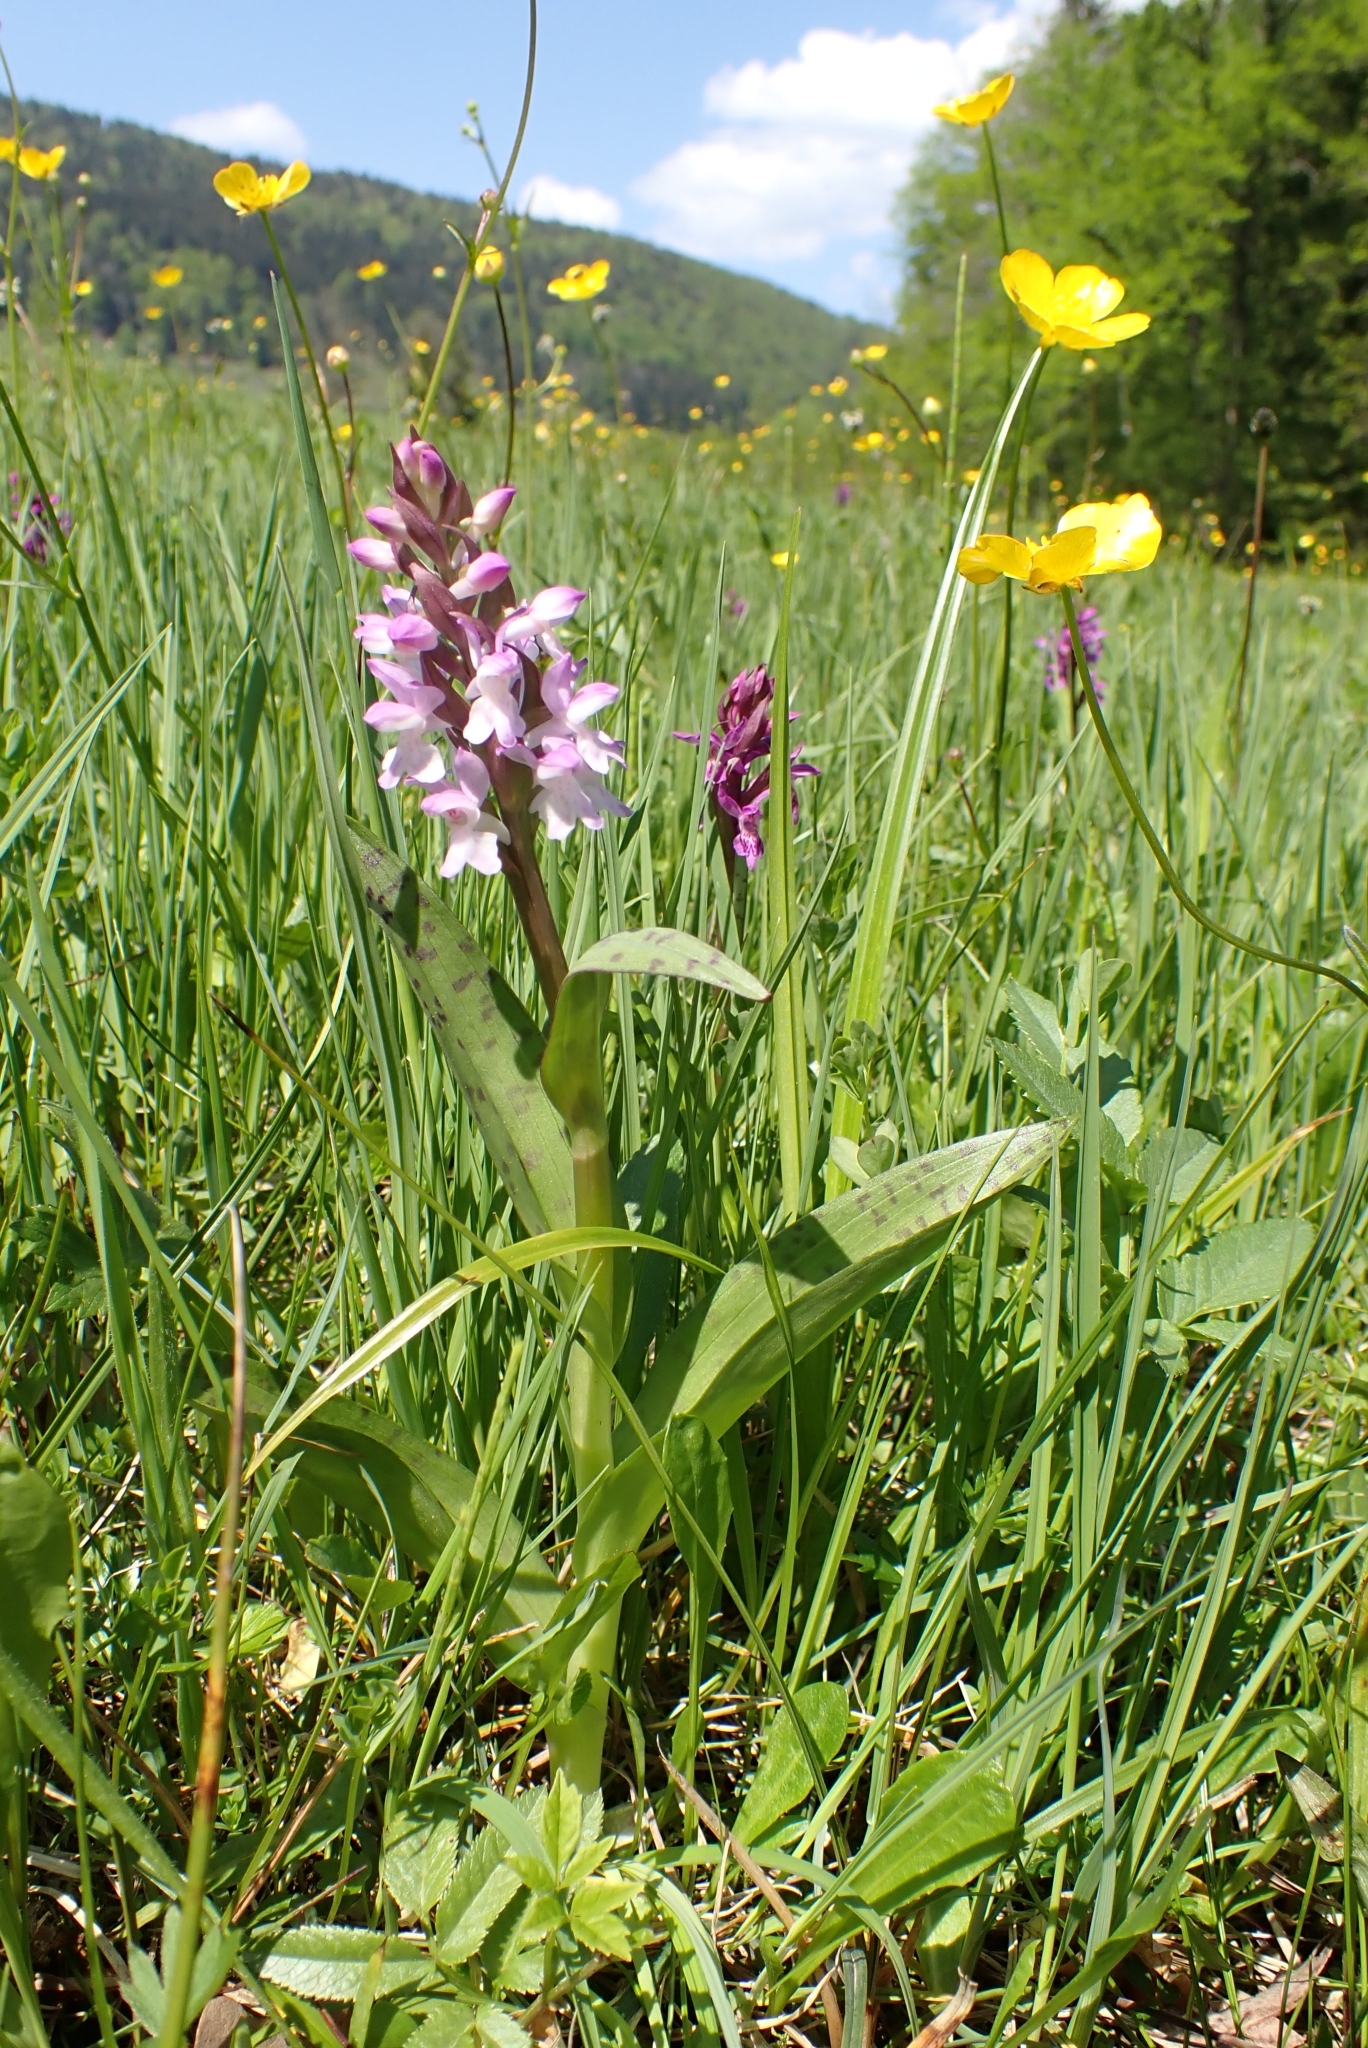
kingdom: Plantae
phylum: Tracheophyta
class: Liliopsida
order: Asparagales
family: Orchidaceae
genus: Dactylorhiza
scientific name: Dactylorhiza majalis
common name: Marsh orchid
